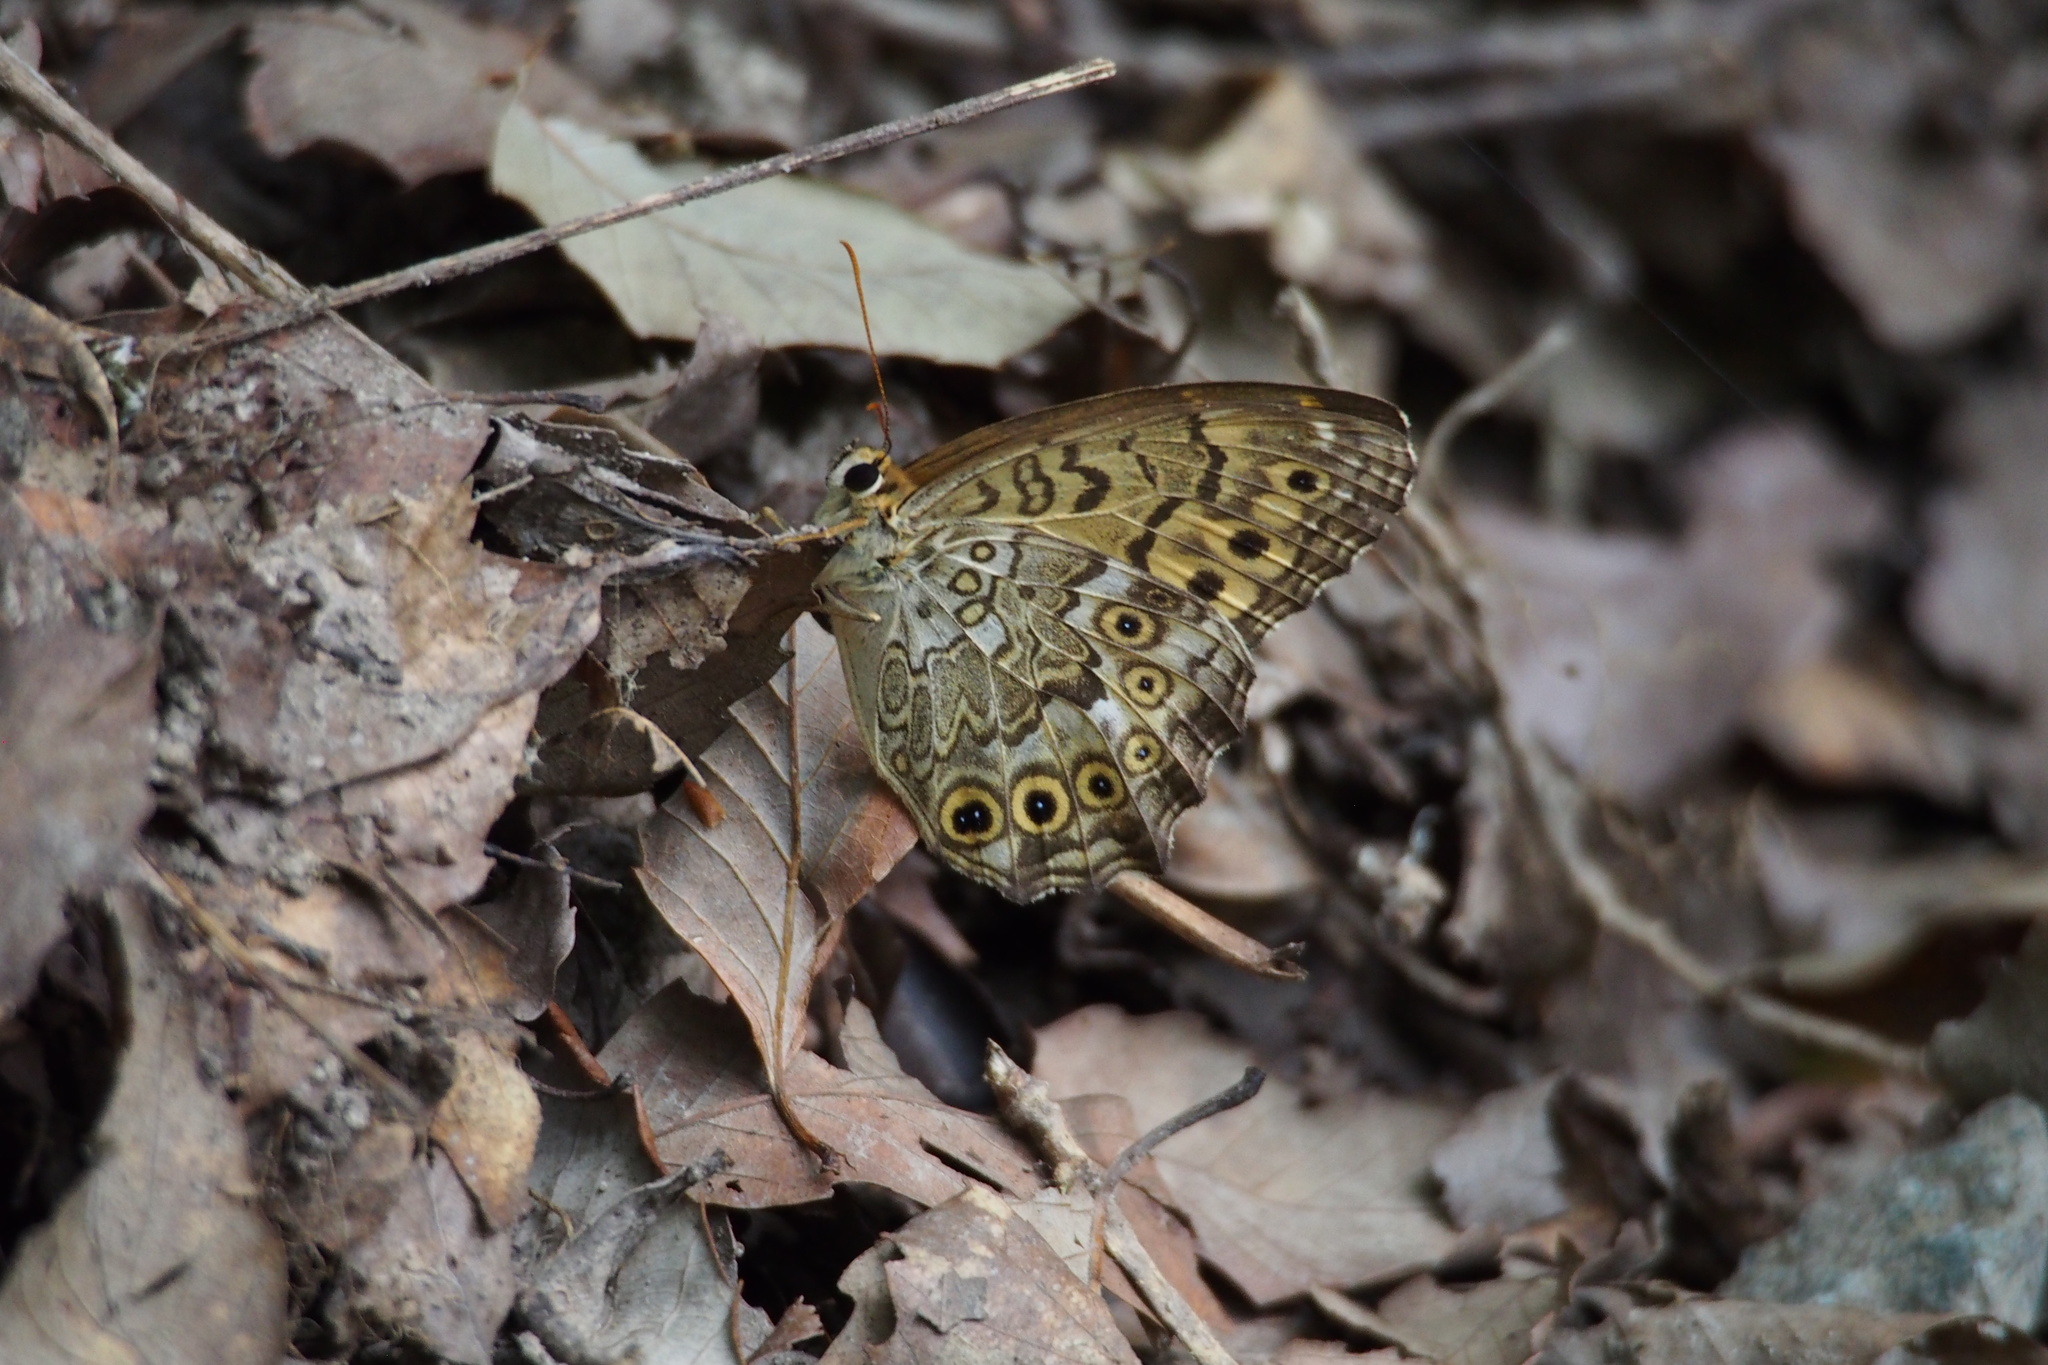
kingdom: Animalia
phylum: Arthropoda
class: Insecta
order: Lepidoptera
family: Nymphalidae
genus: Neope
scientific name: Neope goschkevitschii
